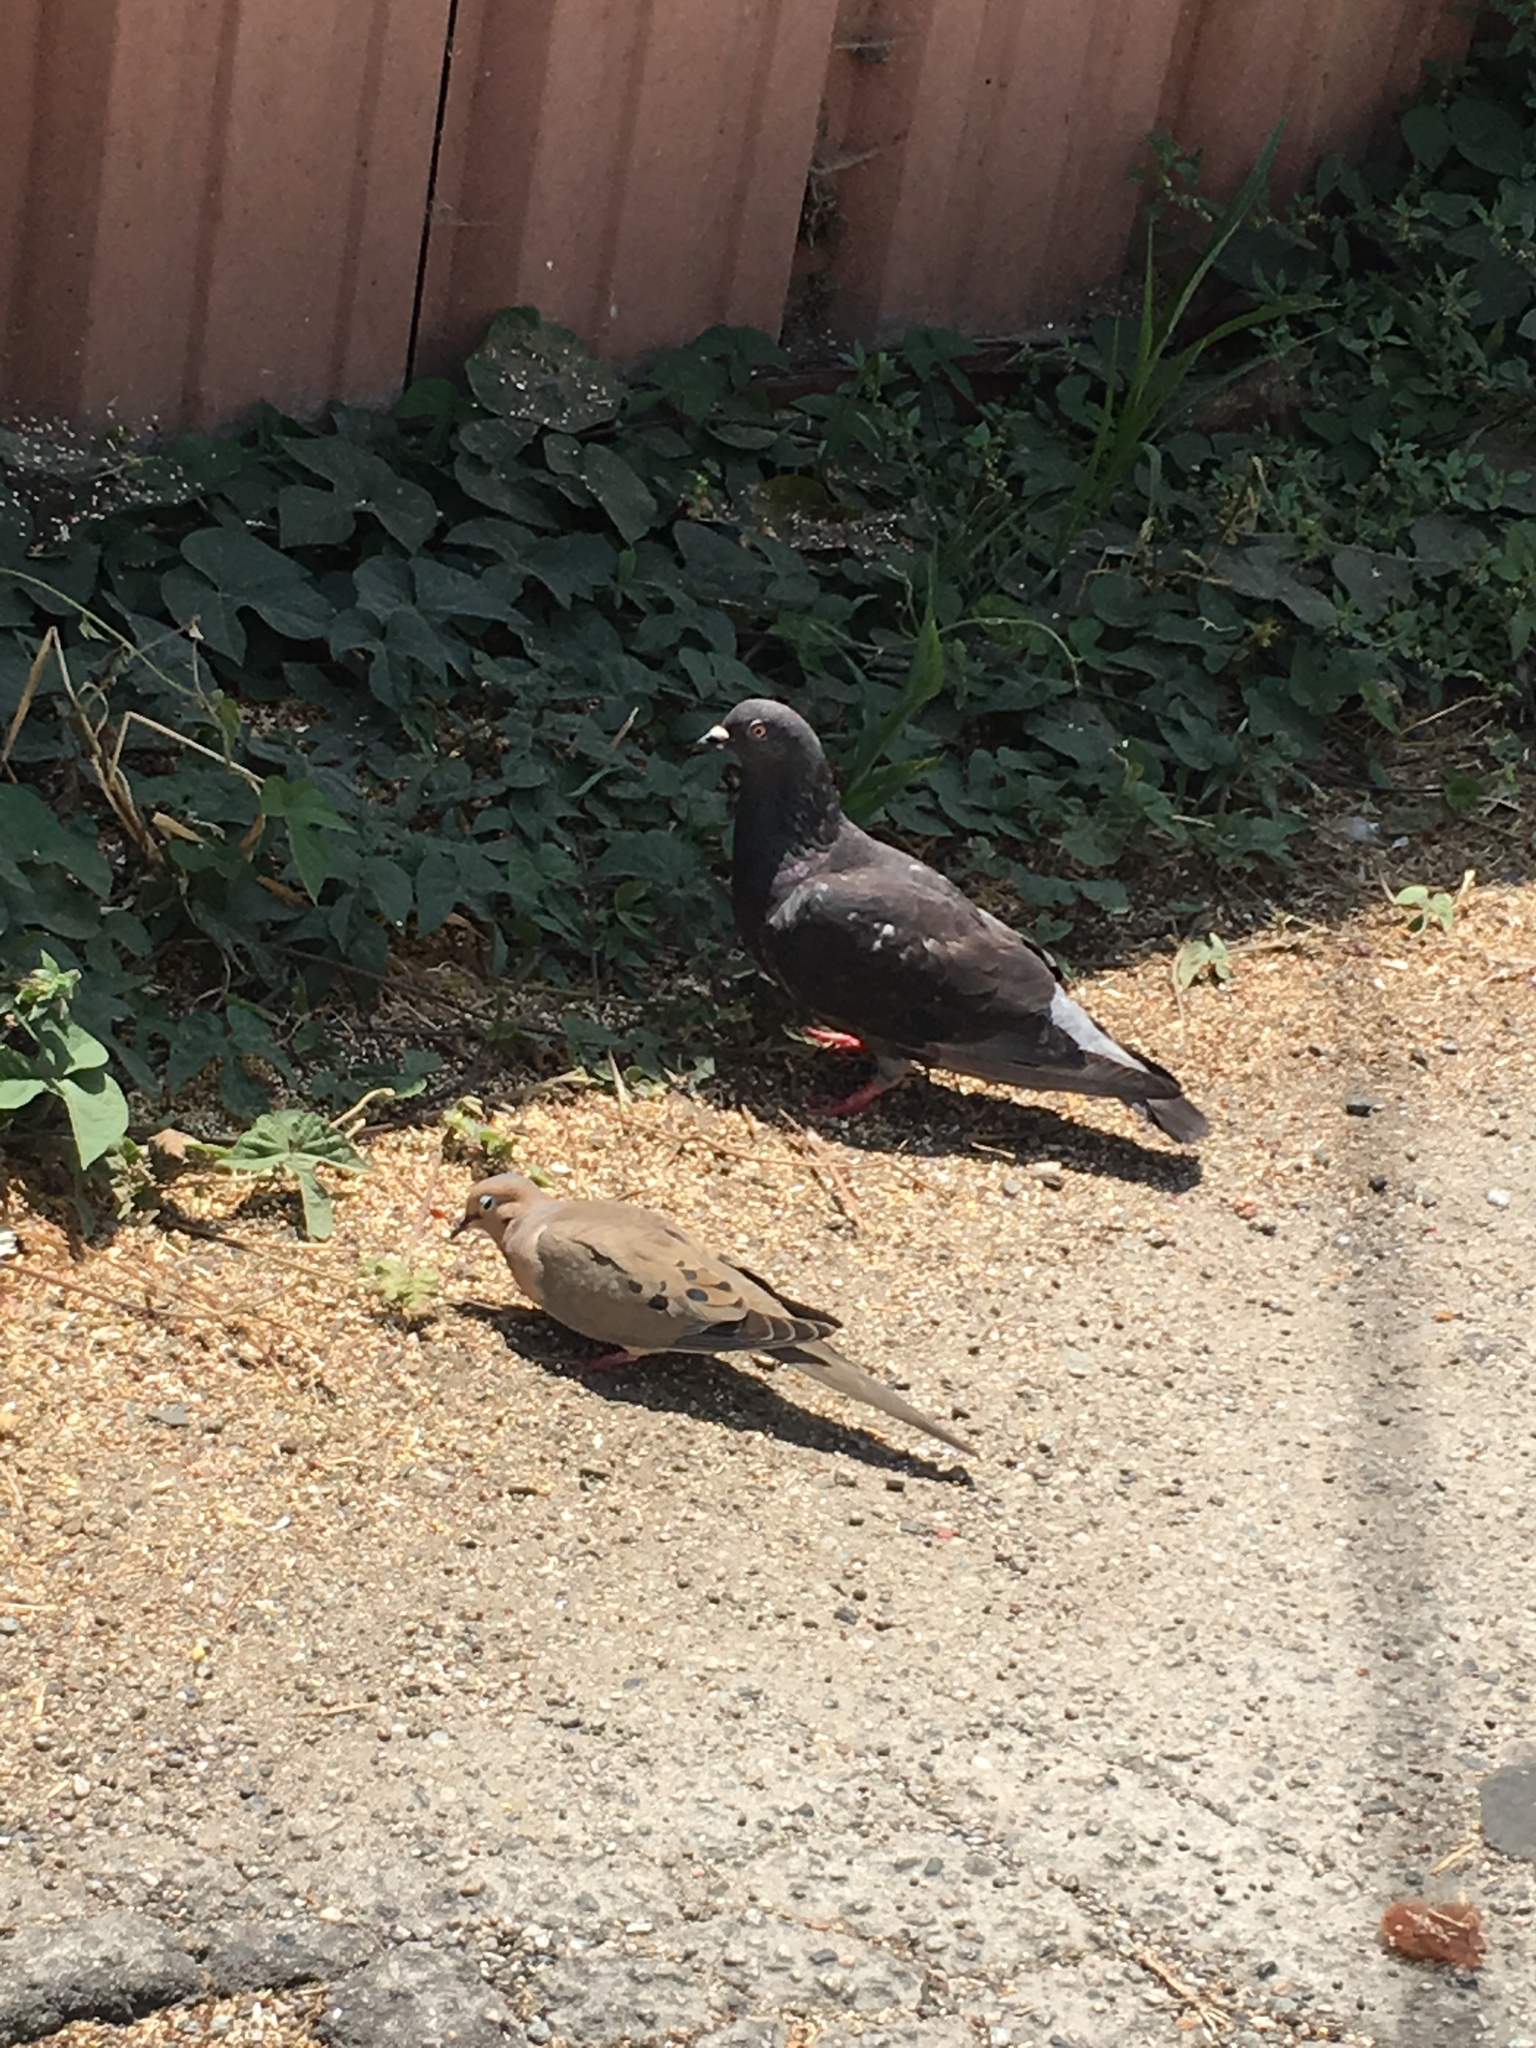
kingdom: Animalia
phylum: Chordata
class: Aves
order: Columbiformes
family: Columbidae
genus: Columba
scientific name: Columba livia
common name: Rock pigeon
